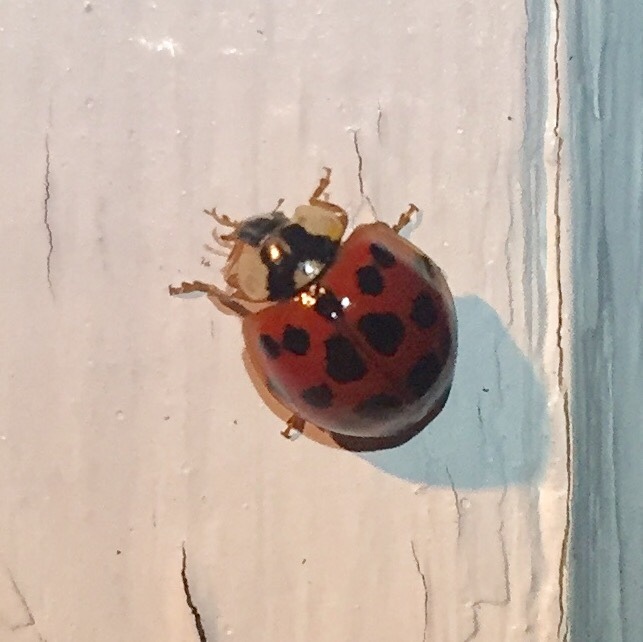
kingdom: Animalia
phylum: Arthropoda
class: Insecta
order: Coleoptera
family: Coccinellidae
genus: Harmonia
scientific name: Harmonia axyridis
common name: Harlequin ladybird
